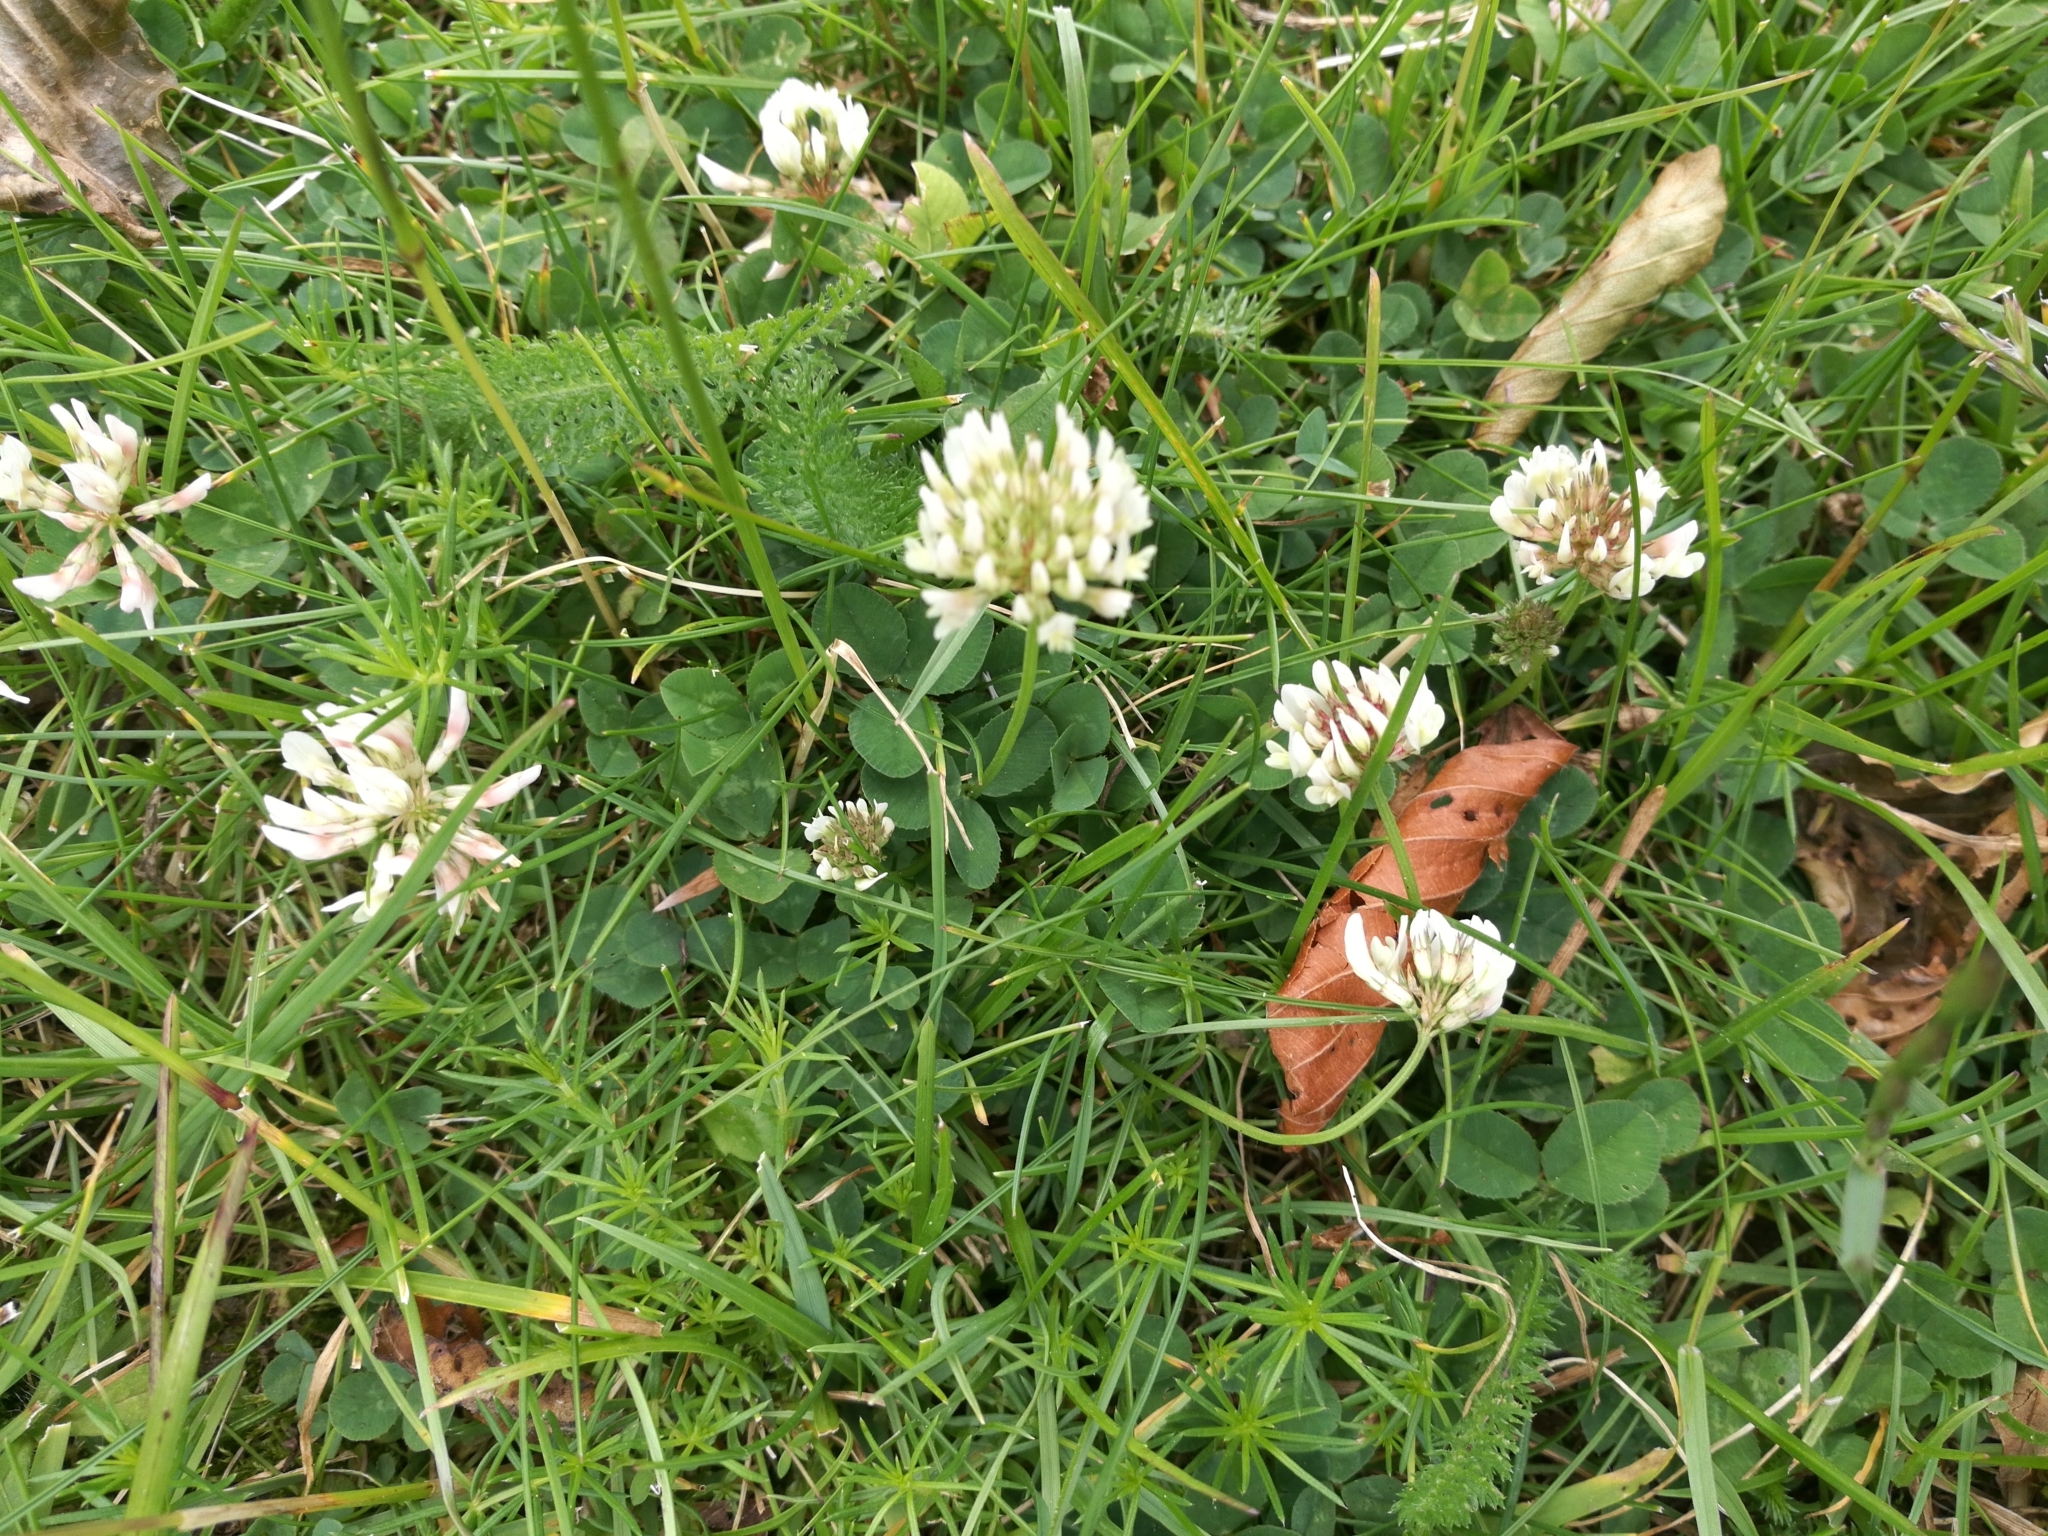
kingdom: Plantae
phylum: Tracheophyta
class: Magnoliopsida
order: Fabales
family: Fabaceae
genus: Trifolium
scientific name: Trifolium repens
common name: White clover
